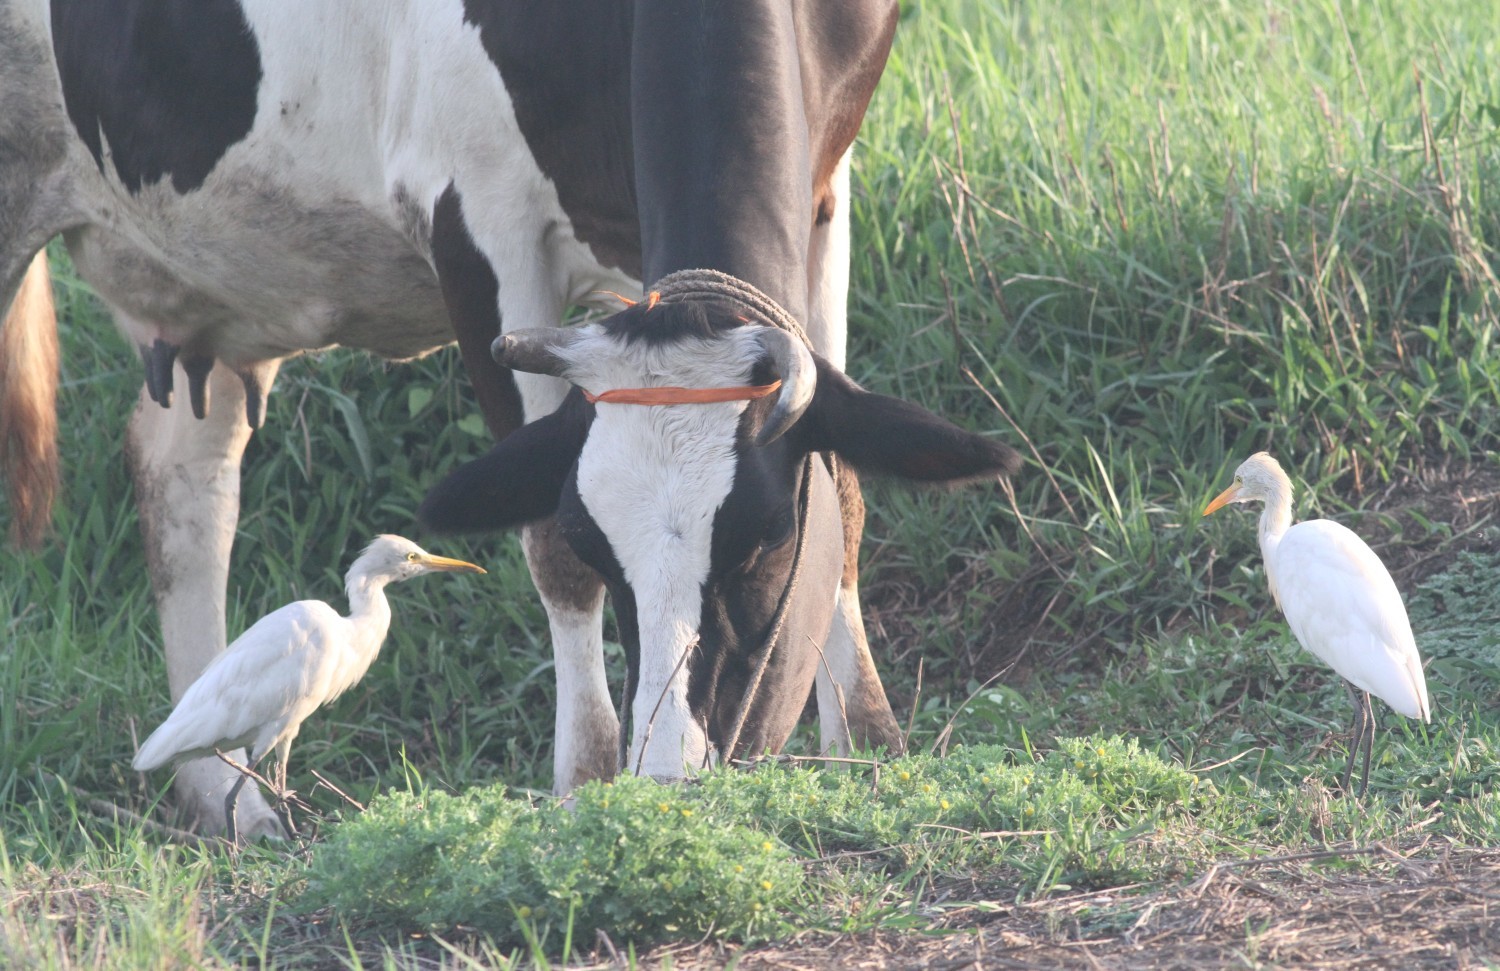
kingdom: Animalia
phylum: Chordata
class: Aves
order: Pelecaniformes
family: Ardeidae
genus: Bubulcus
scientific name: Bubulcus coromandus
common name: Eastern cattle egret
